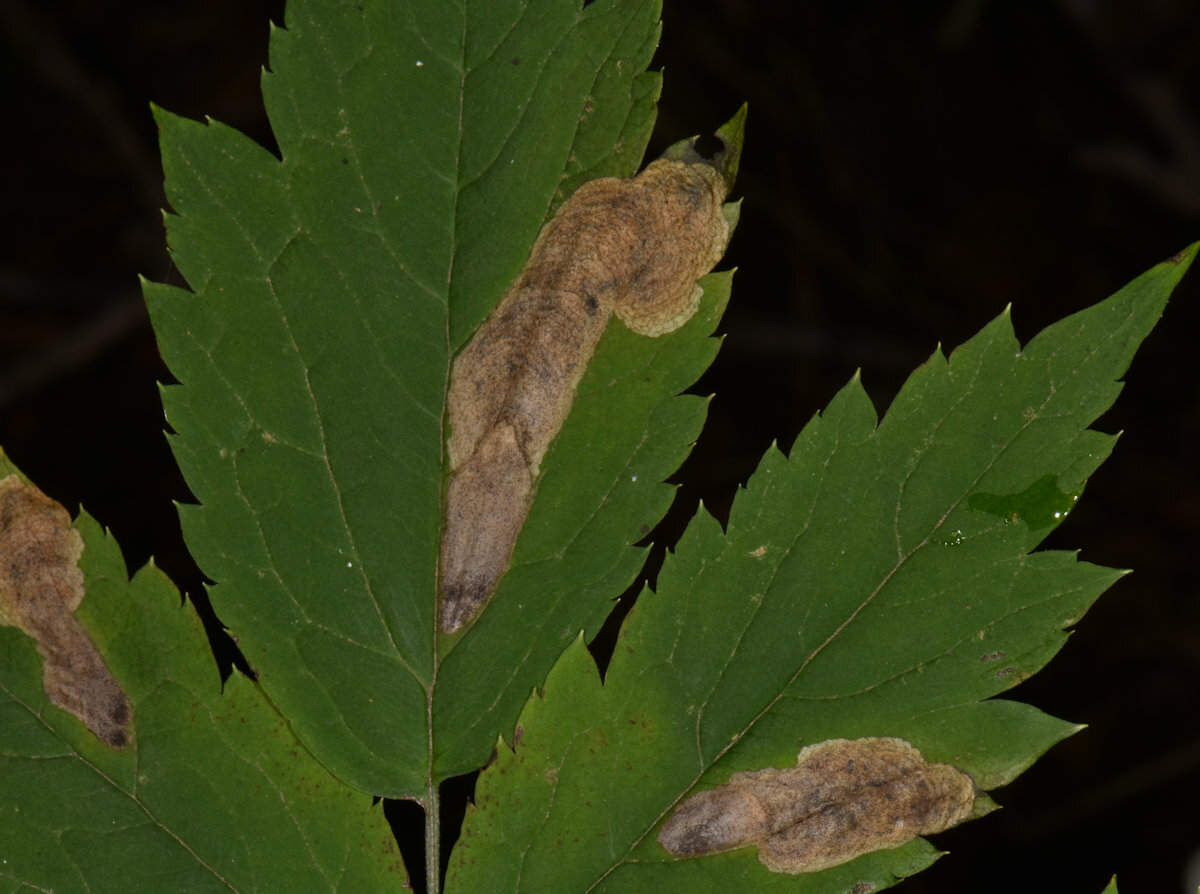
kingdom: Animalia
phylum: Arthropoda
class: Insecta
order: Diptera
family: Agromyzidae
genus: Phytomyza
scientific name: Phytomyza
